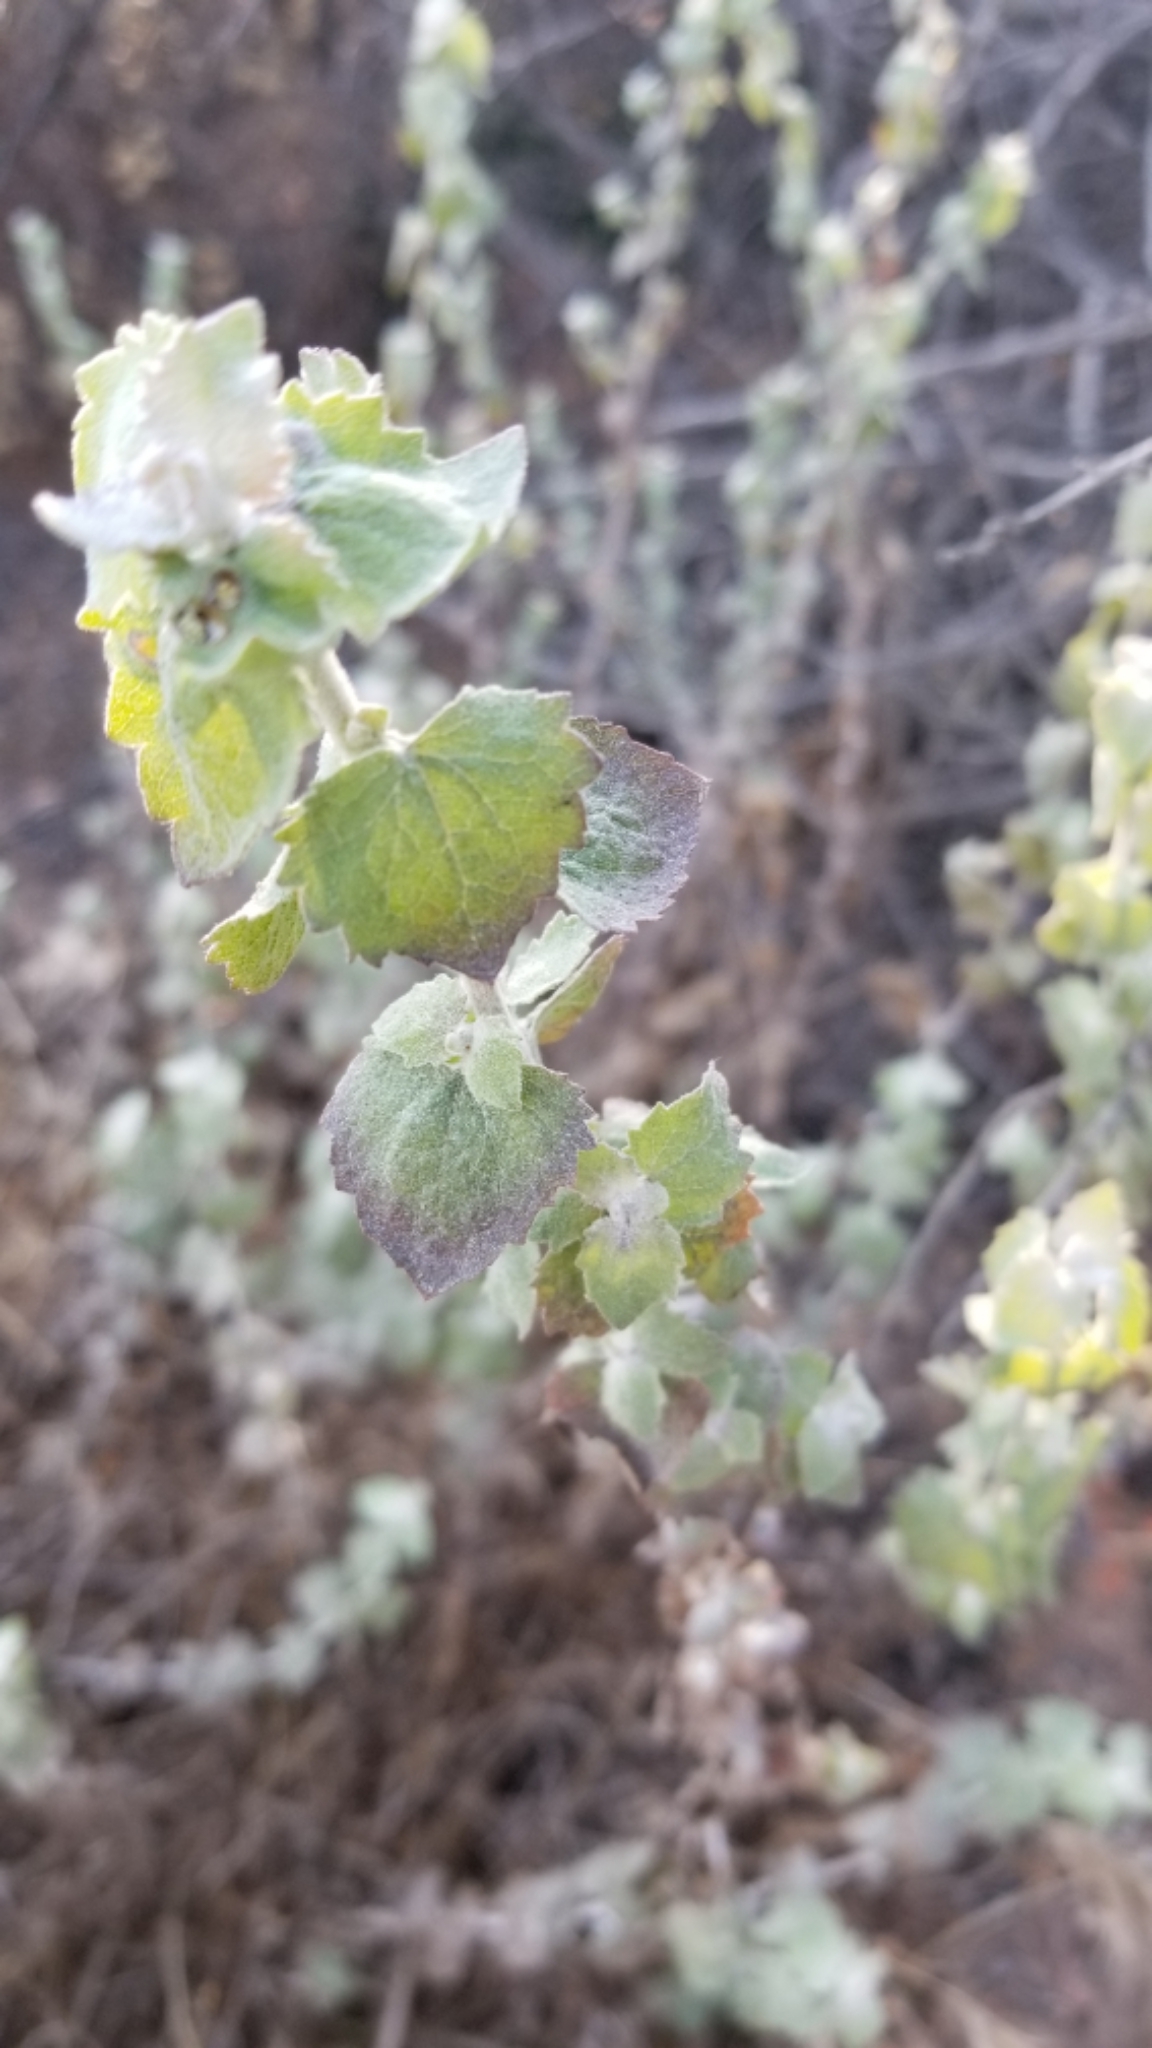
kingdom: Plantae
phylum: Tracheophyta
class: Magnoliopsida
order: Asterales
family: Asteraceae
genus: Brickellia
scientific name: Brickellia californica
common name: California brickellbush
